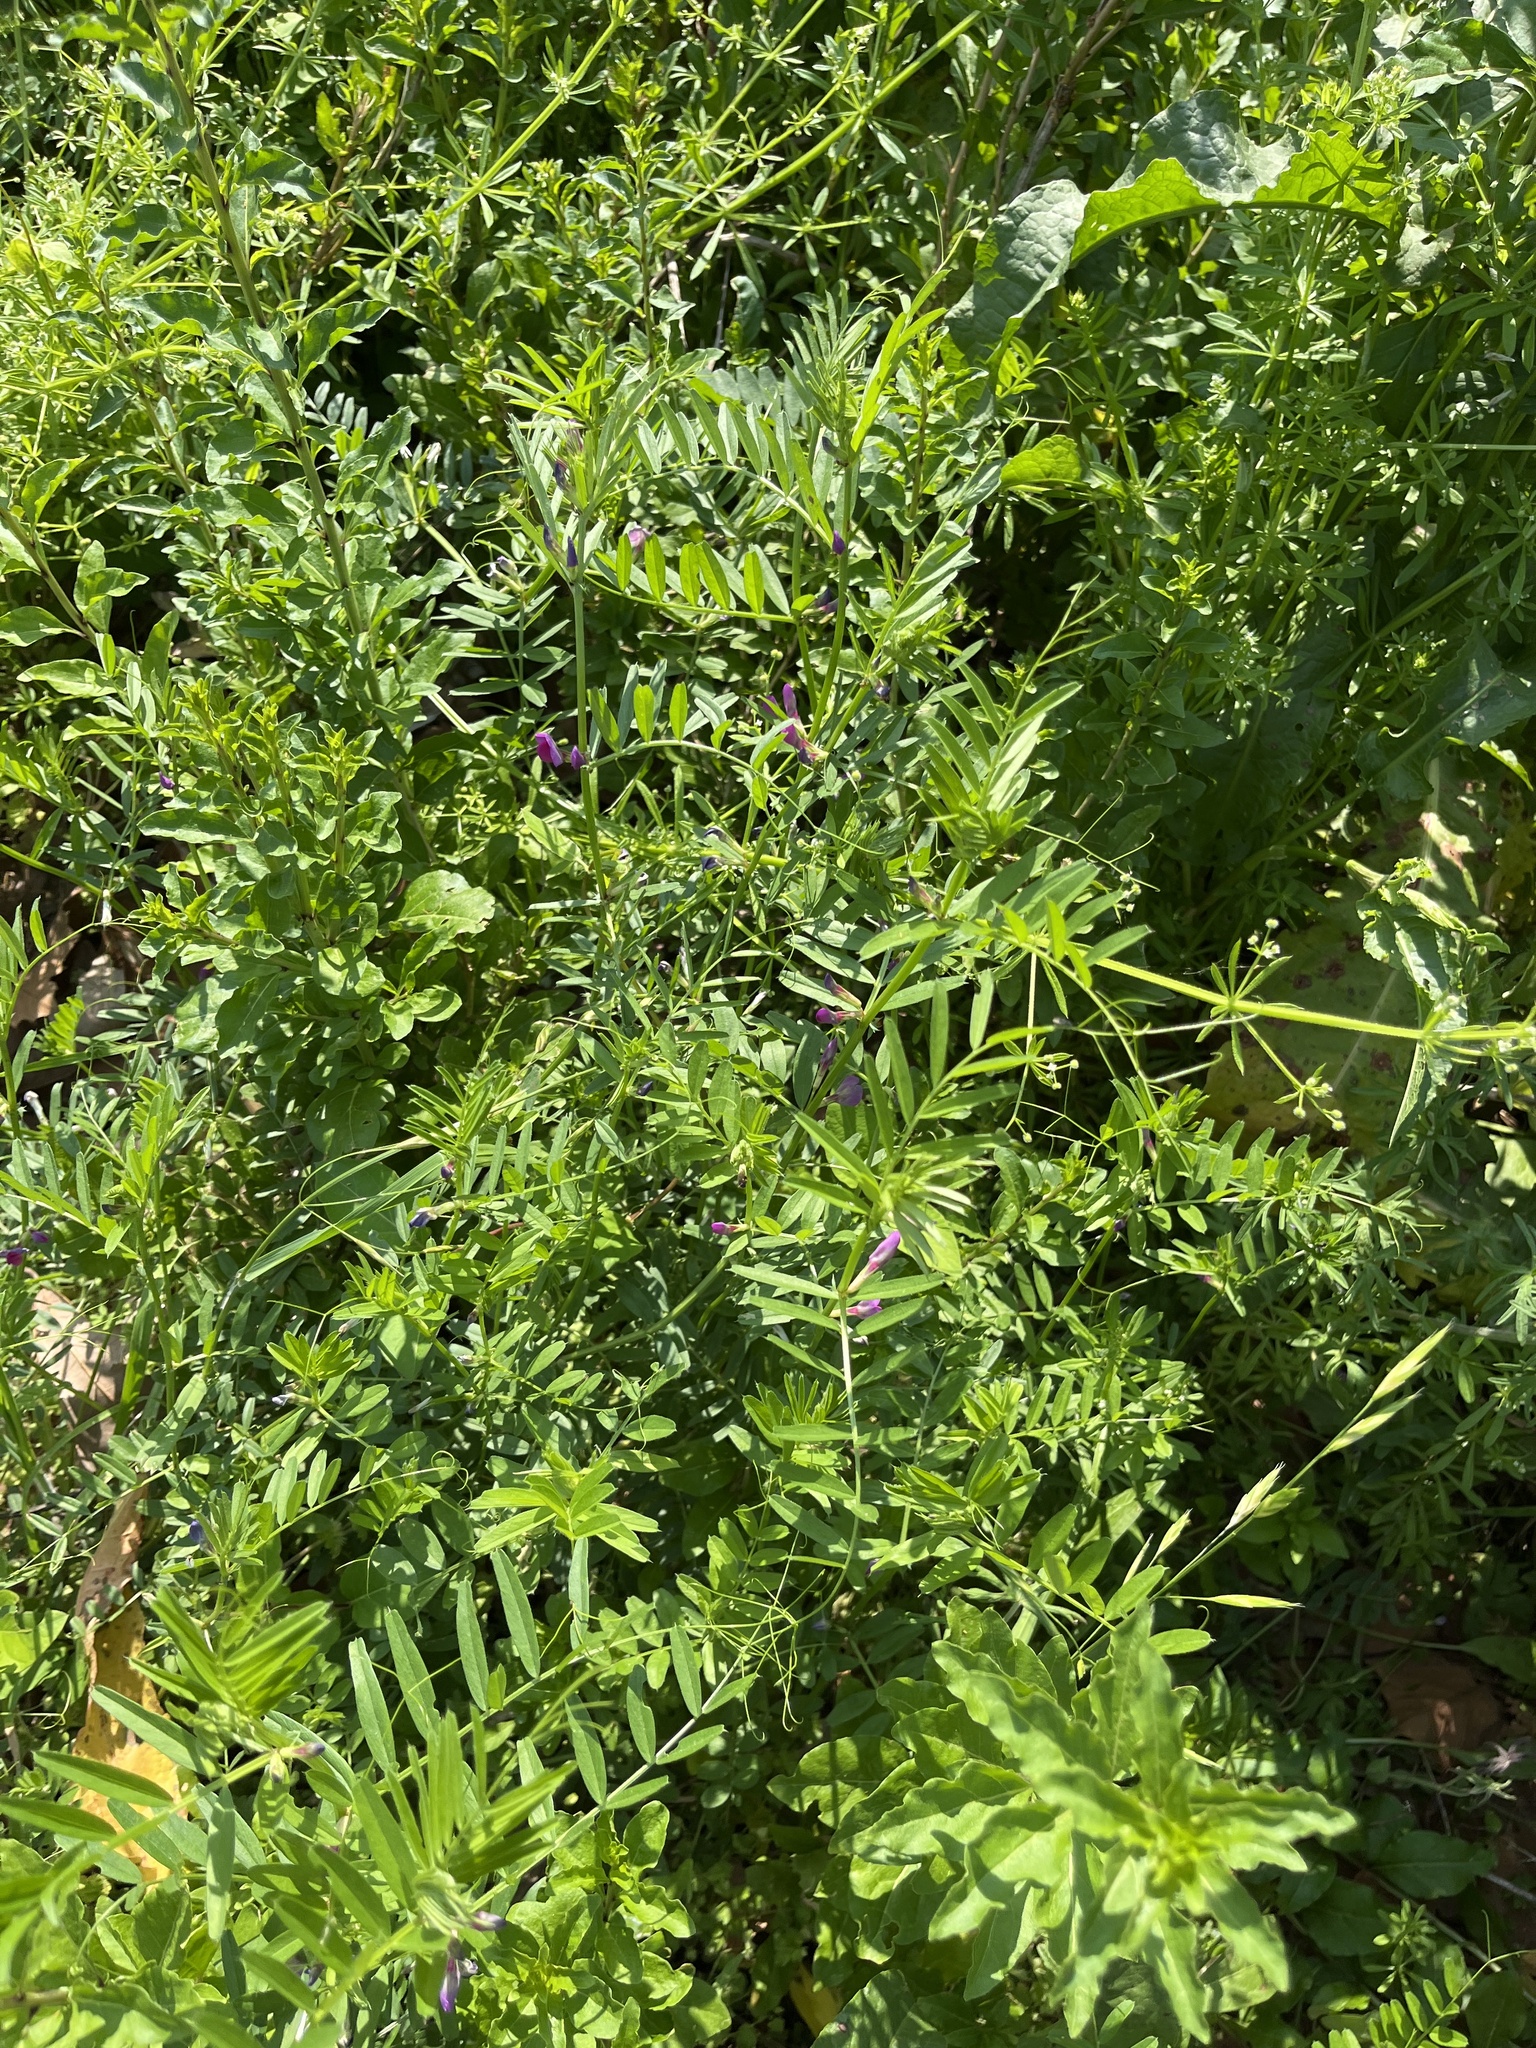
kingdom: Plantae
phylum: Tracheophyta
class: Magnoliopsida
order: Fabales
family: Fabaceae
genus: Vicia
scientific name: Vicia sativa
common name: Garden vetch
